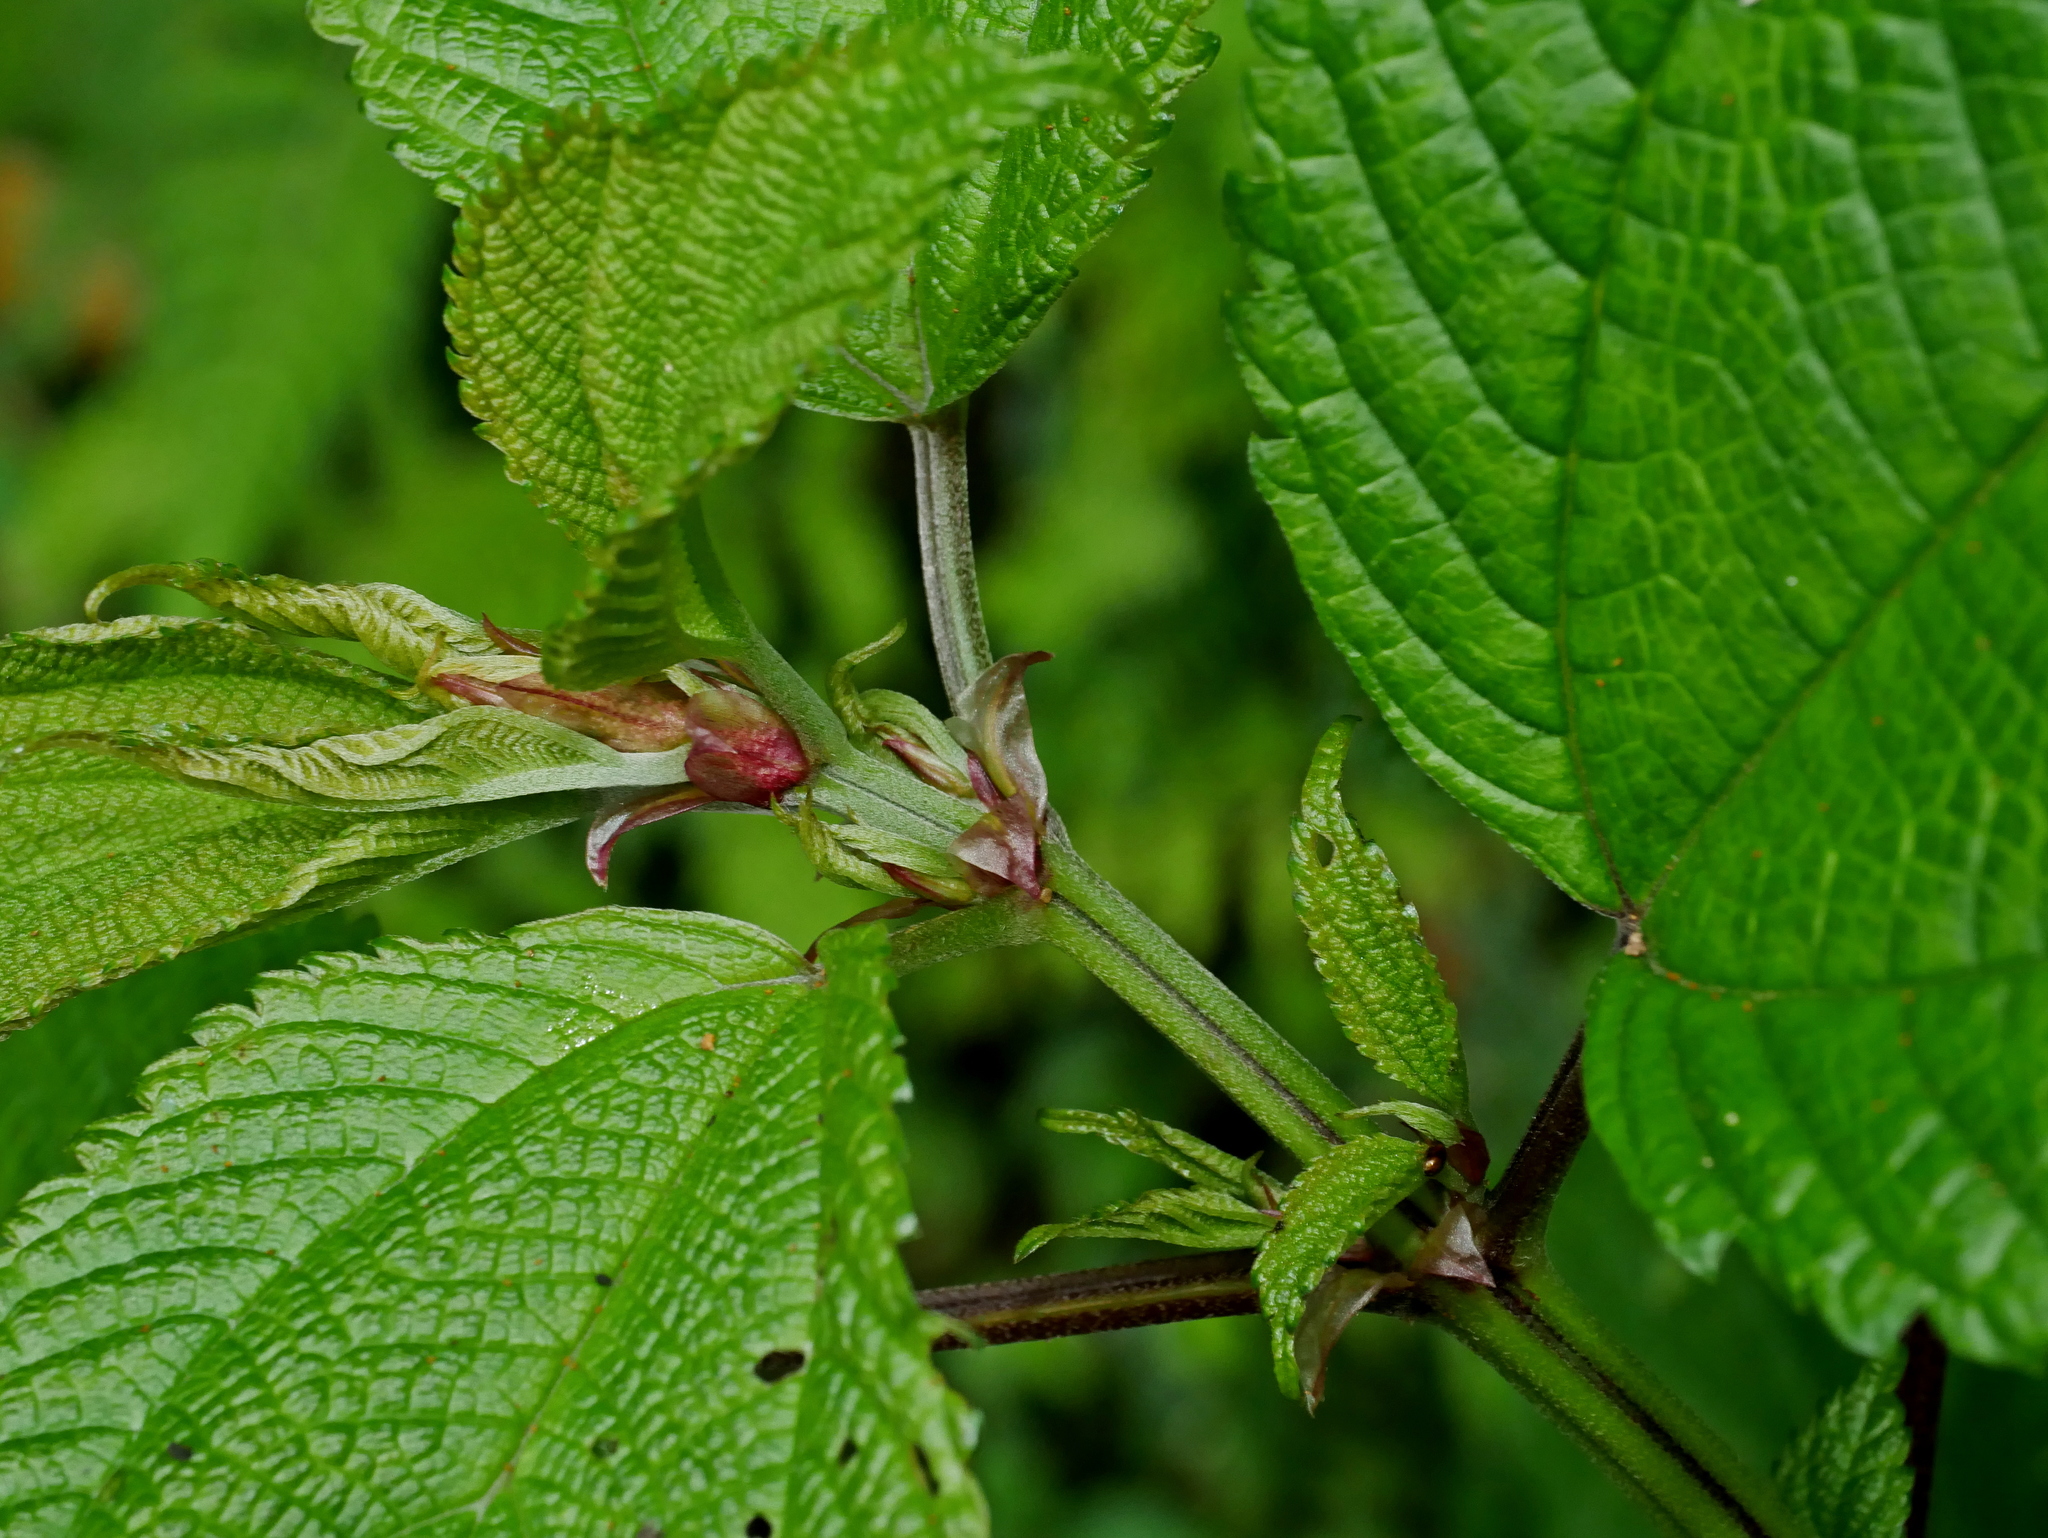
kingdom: Plantae
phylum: Tracheophyta
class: Magnoliopsida
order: Rosales
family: Urticaceae
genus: Boehmeria
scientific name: Boehmeria sieboldiana
